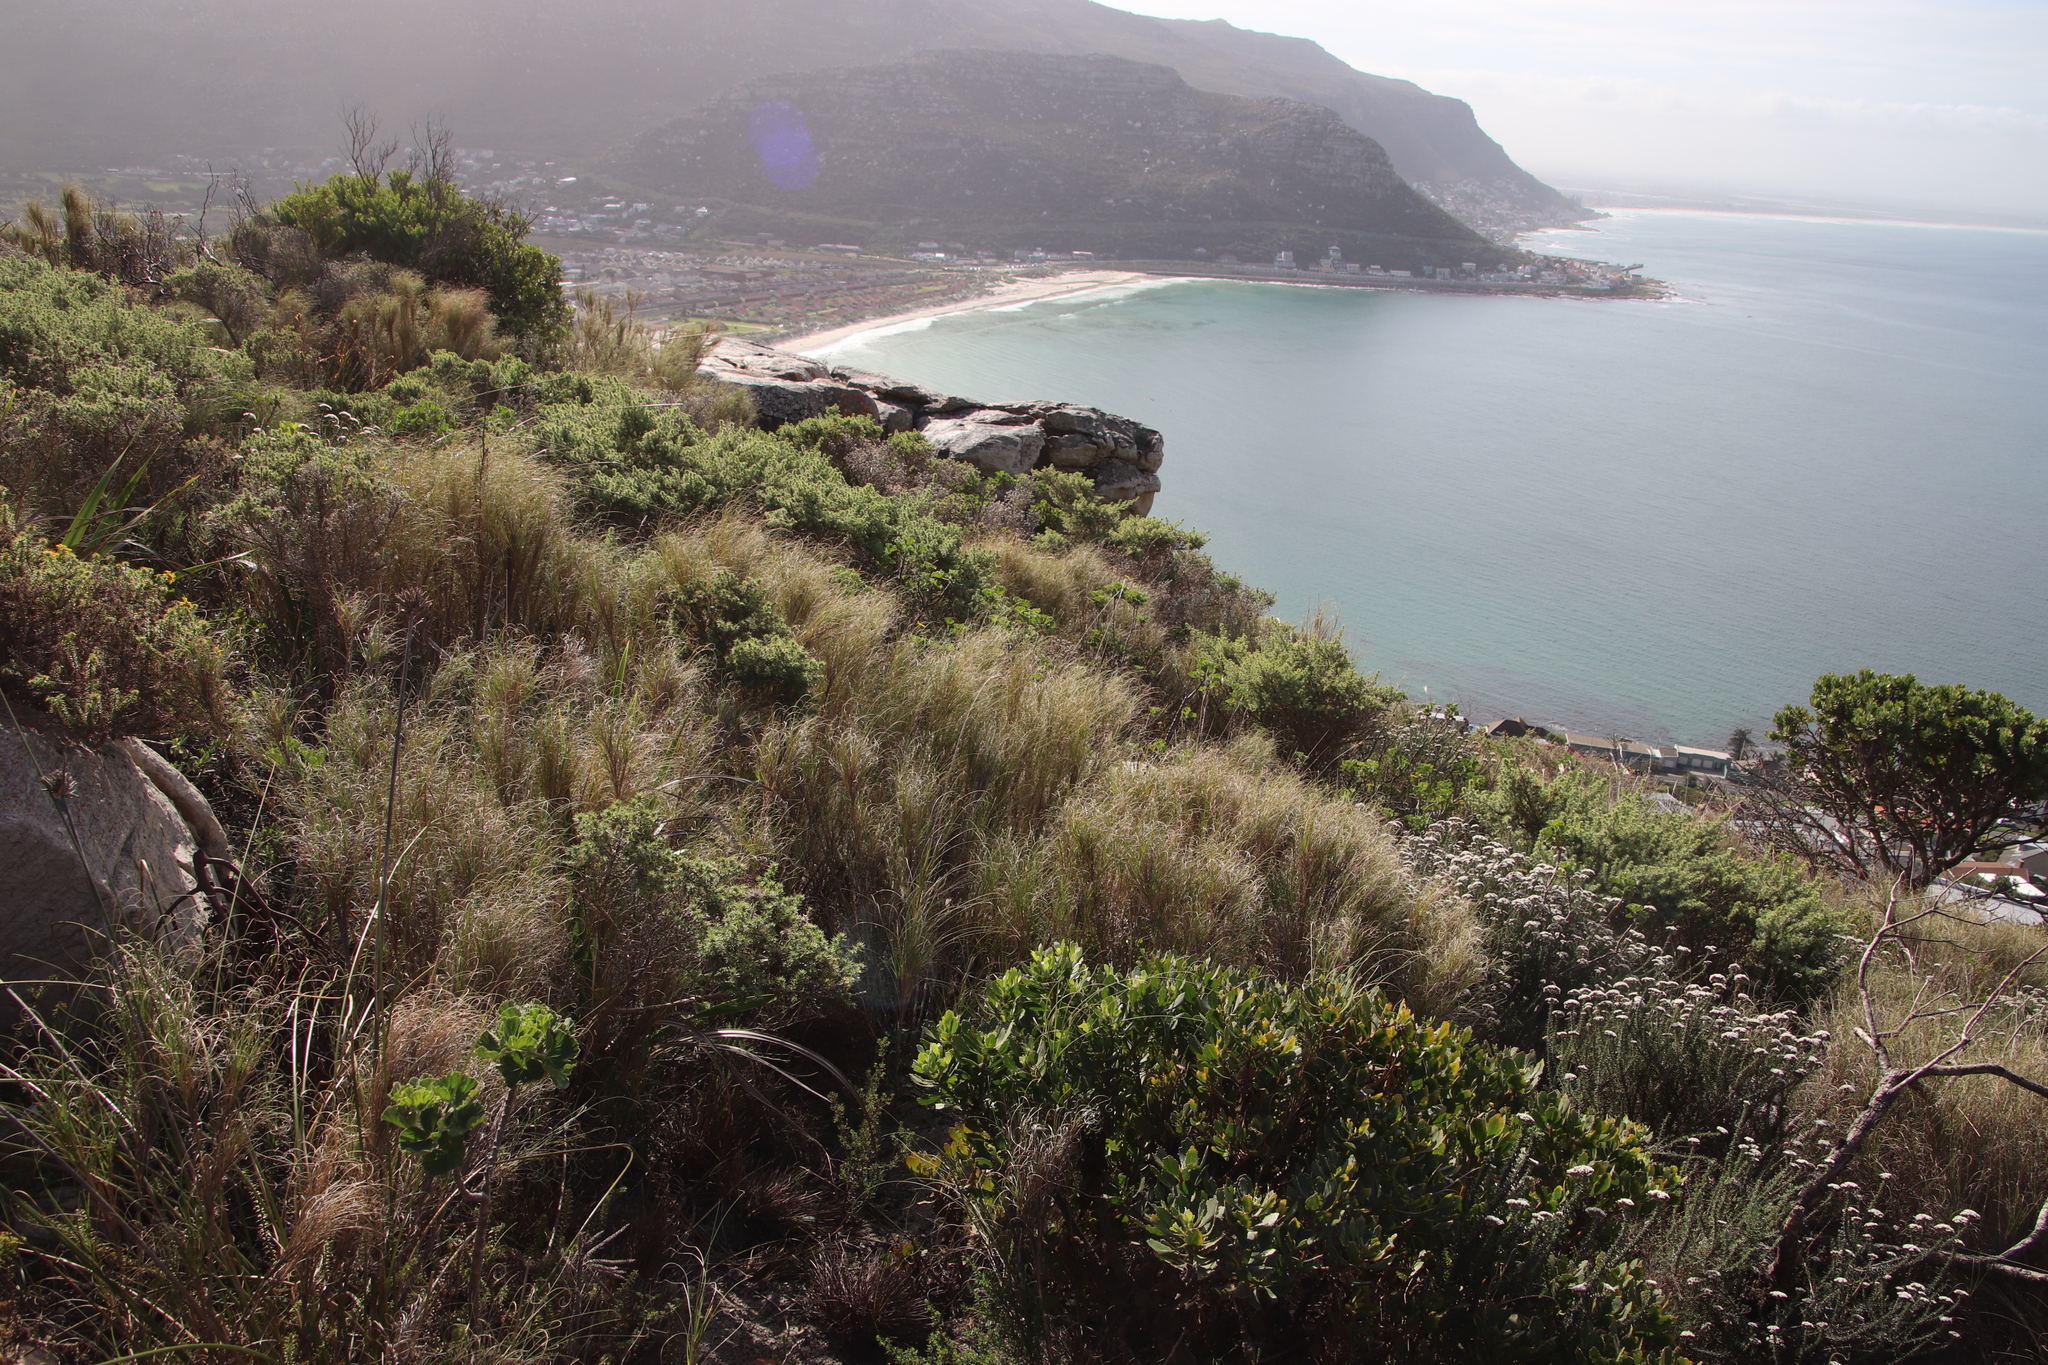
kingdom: Plantae
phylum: Tracheophyta
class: Liliopsida
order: Poales
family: Poaceae
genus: Pseudopentameris
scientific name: Pseudopentameris macrantha
